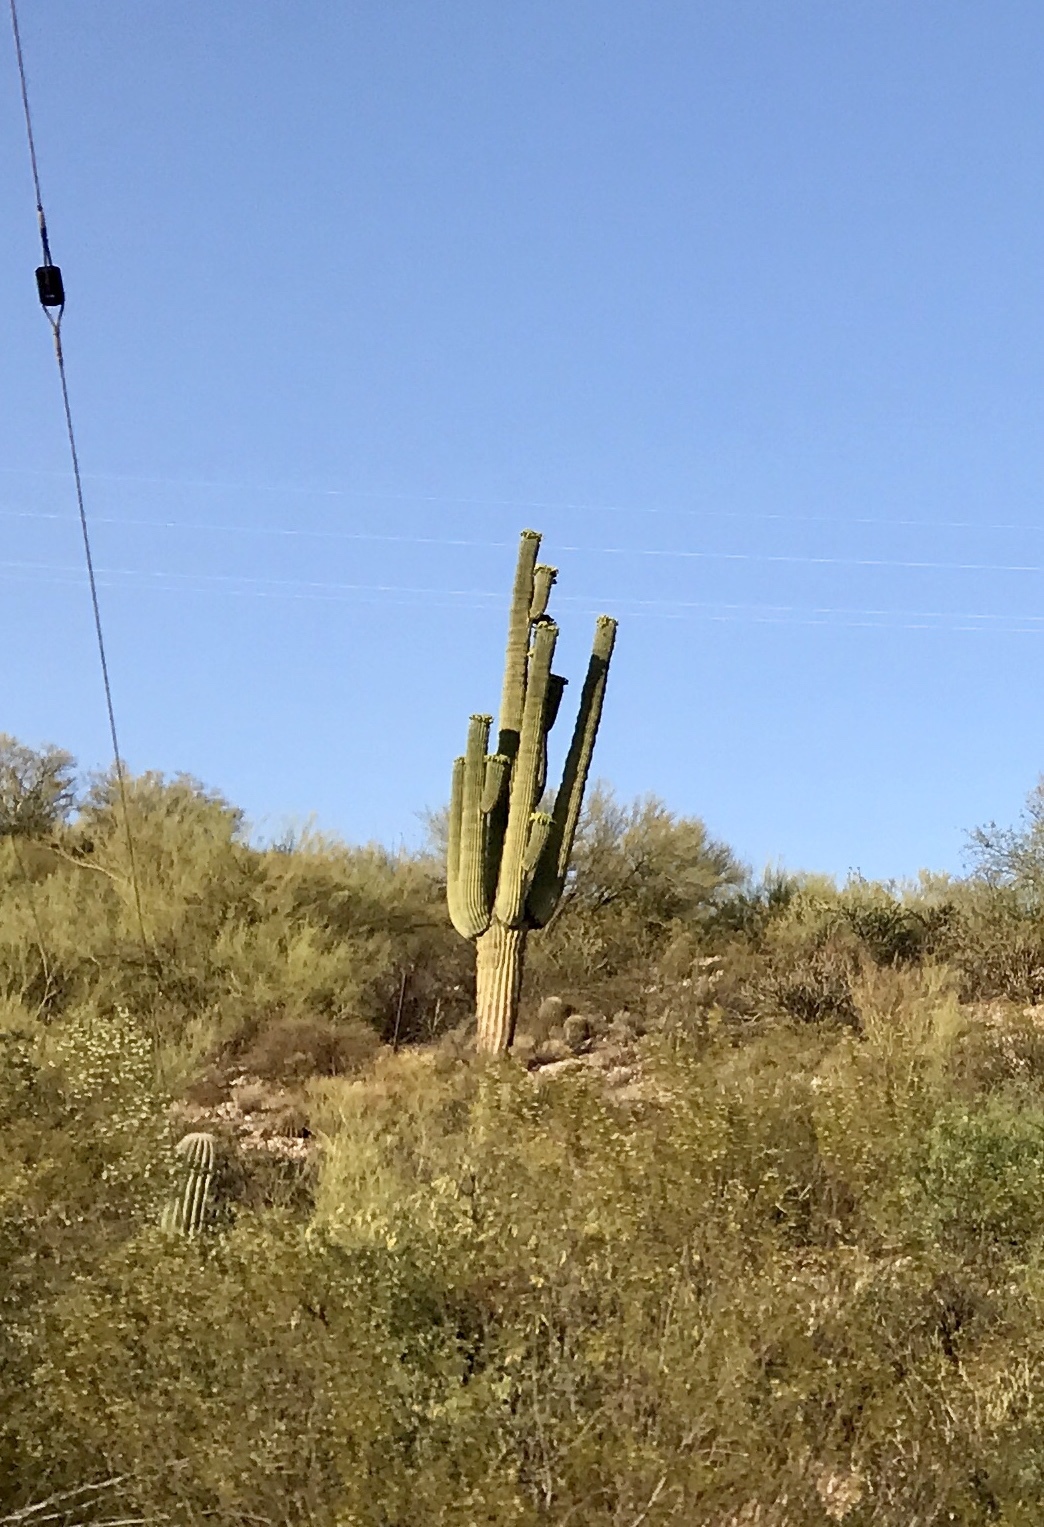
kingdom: Plantae
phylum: Tracheophyta
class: Magnoliopsida
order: Caryophyllales
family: Cactaceae
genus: Carnegiea
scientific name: Carnegiea gigantea
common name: Saguaro
